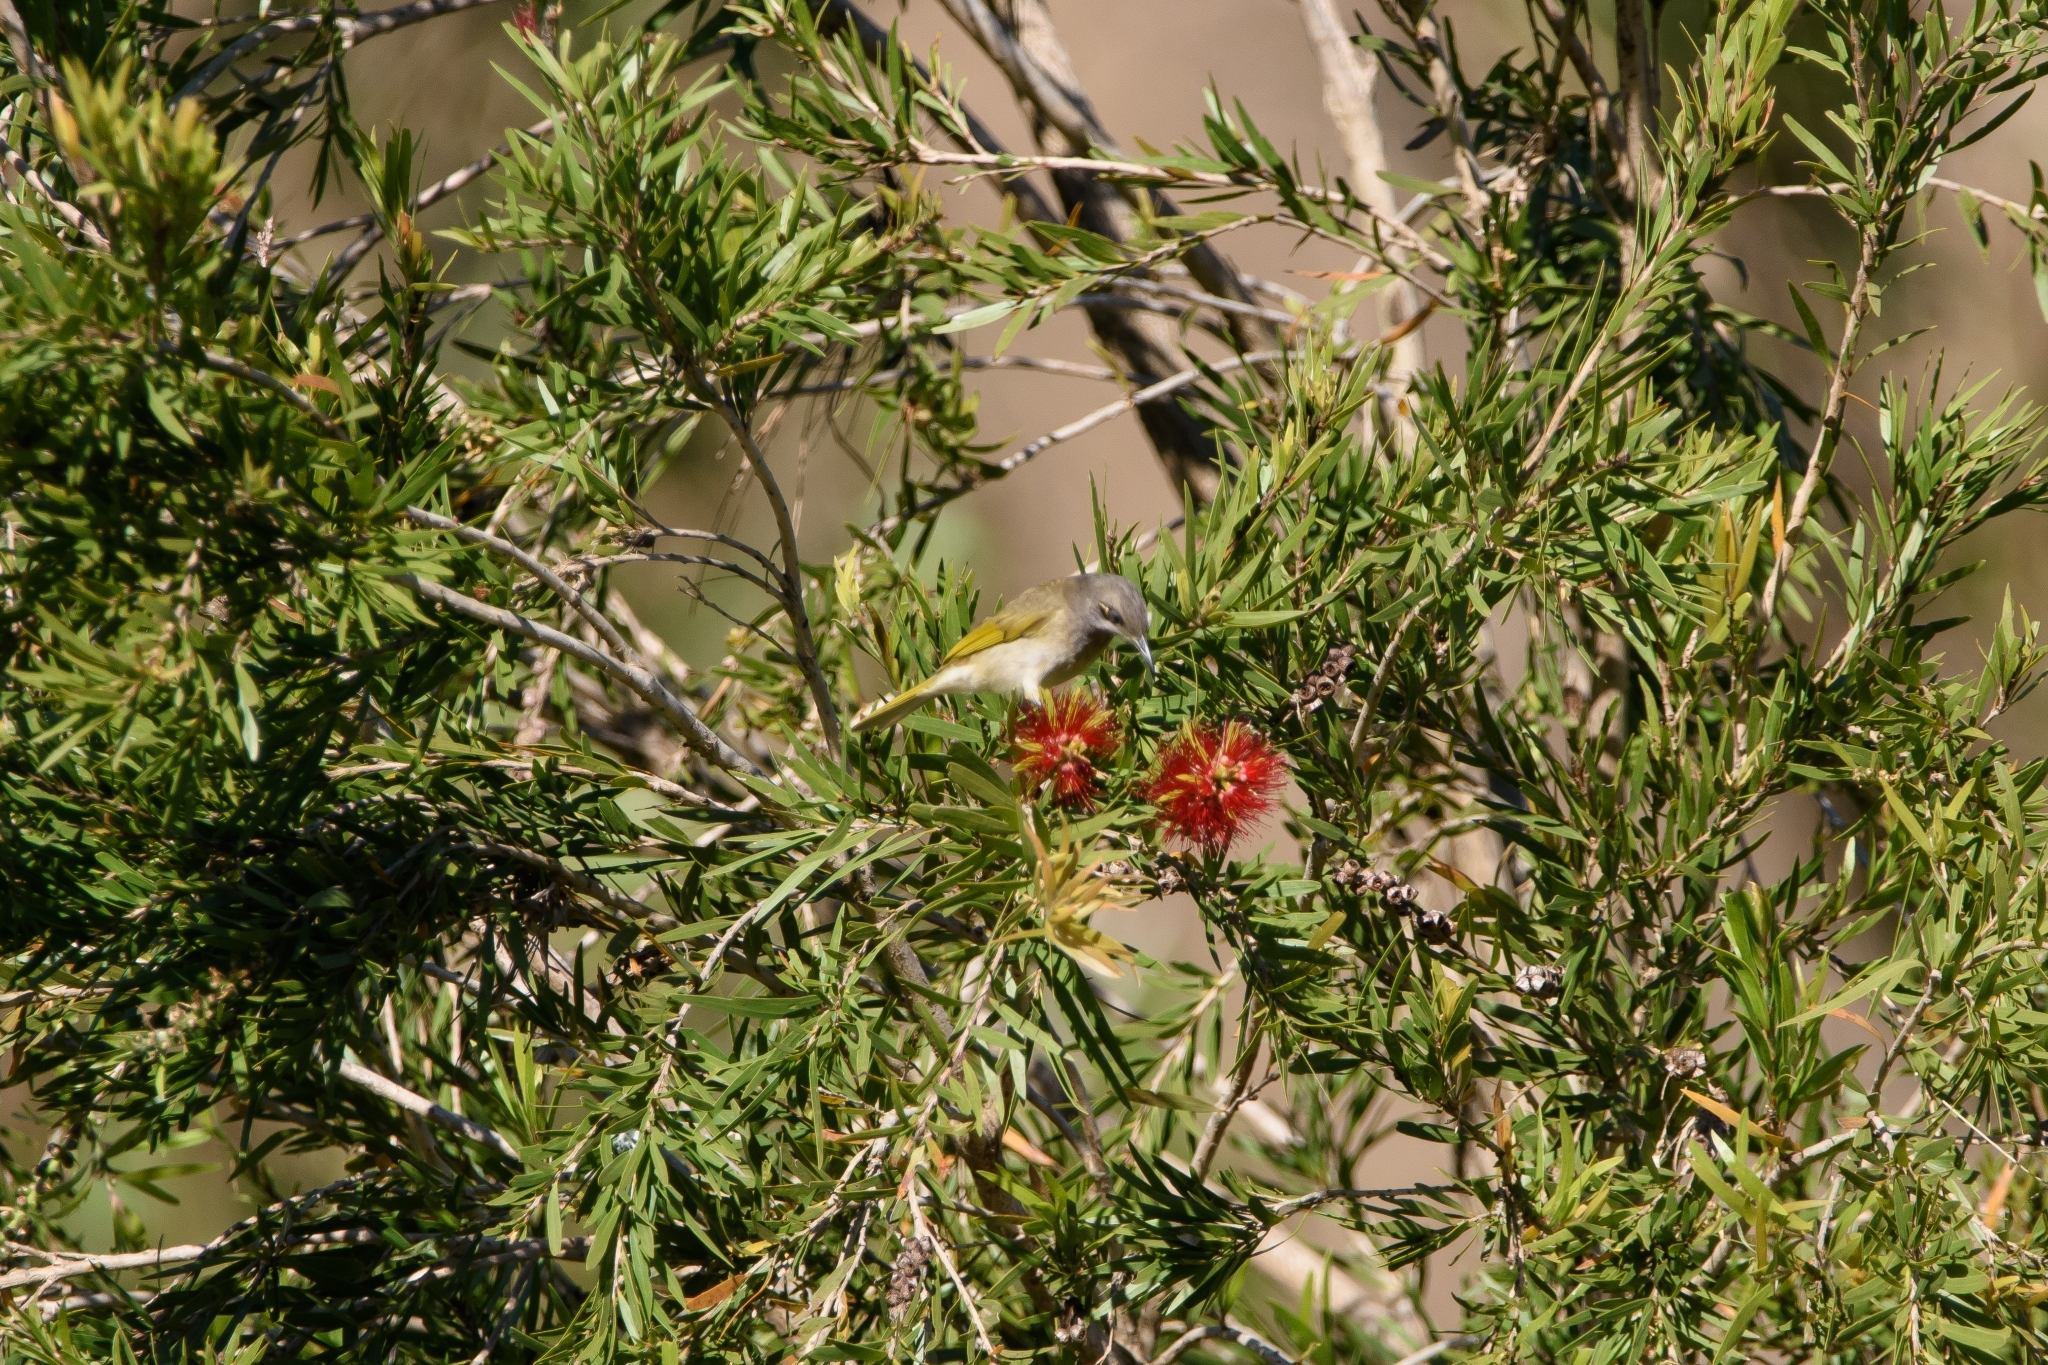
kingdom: Animalia
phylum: Chordata
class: Aves
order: Passeriformes
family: Meliphagidae
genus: Lichmera
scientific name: Lichmera indistincta
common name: Brown honeyeater
